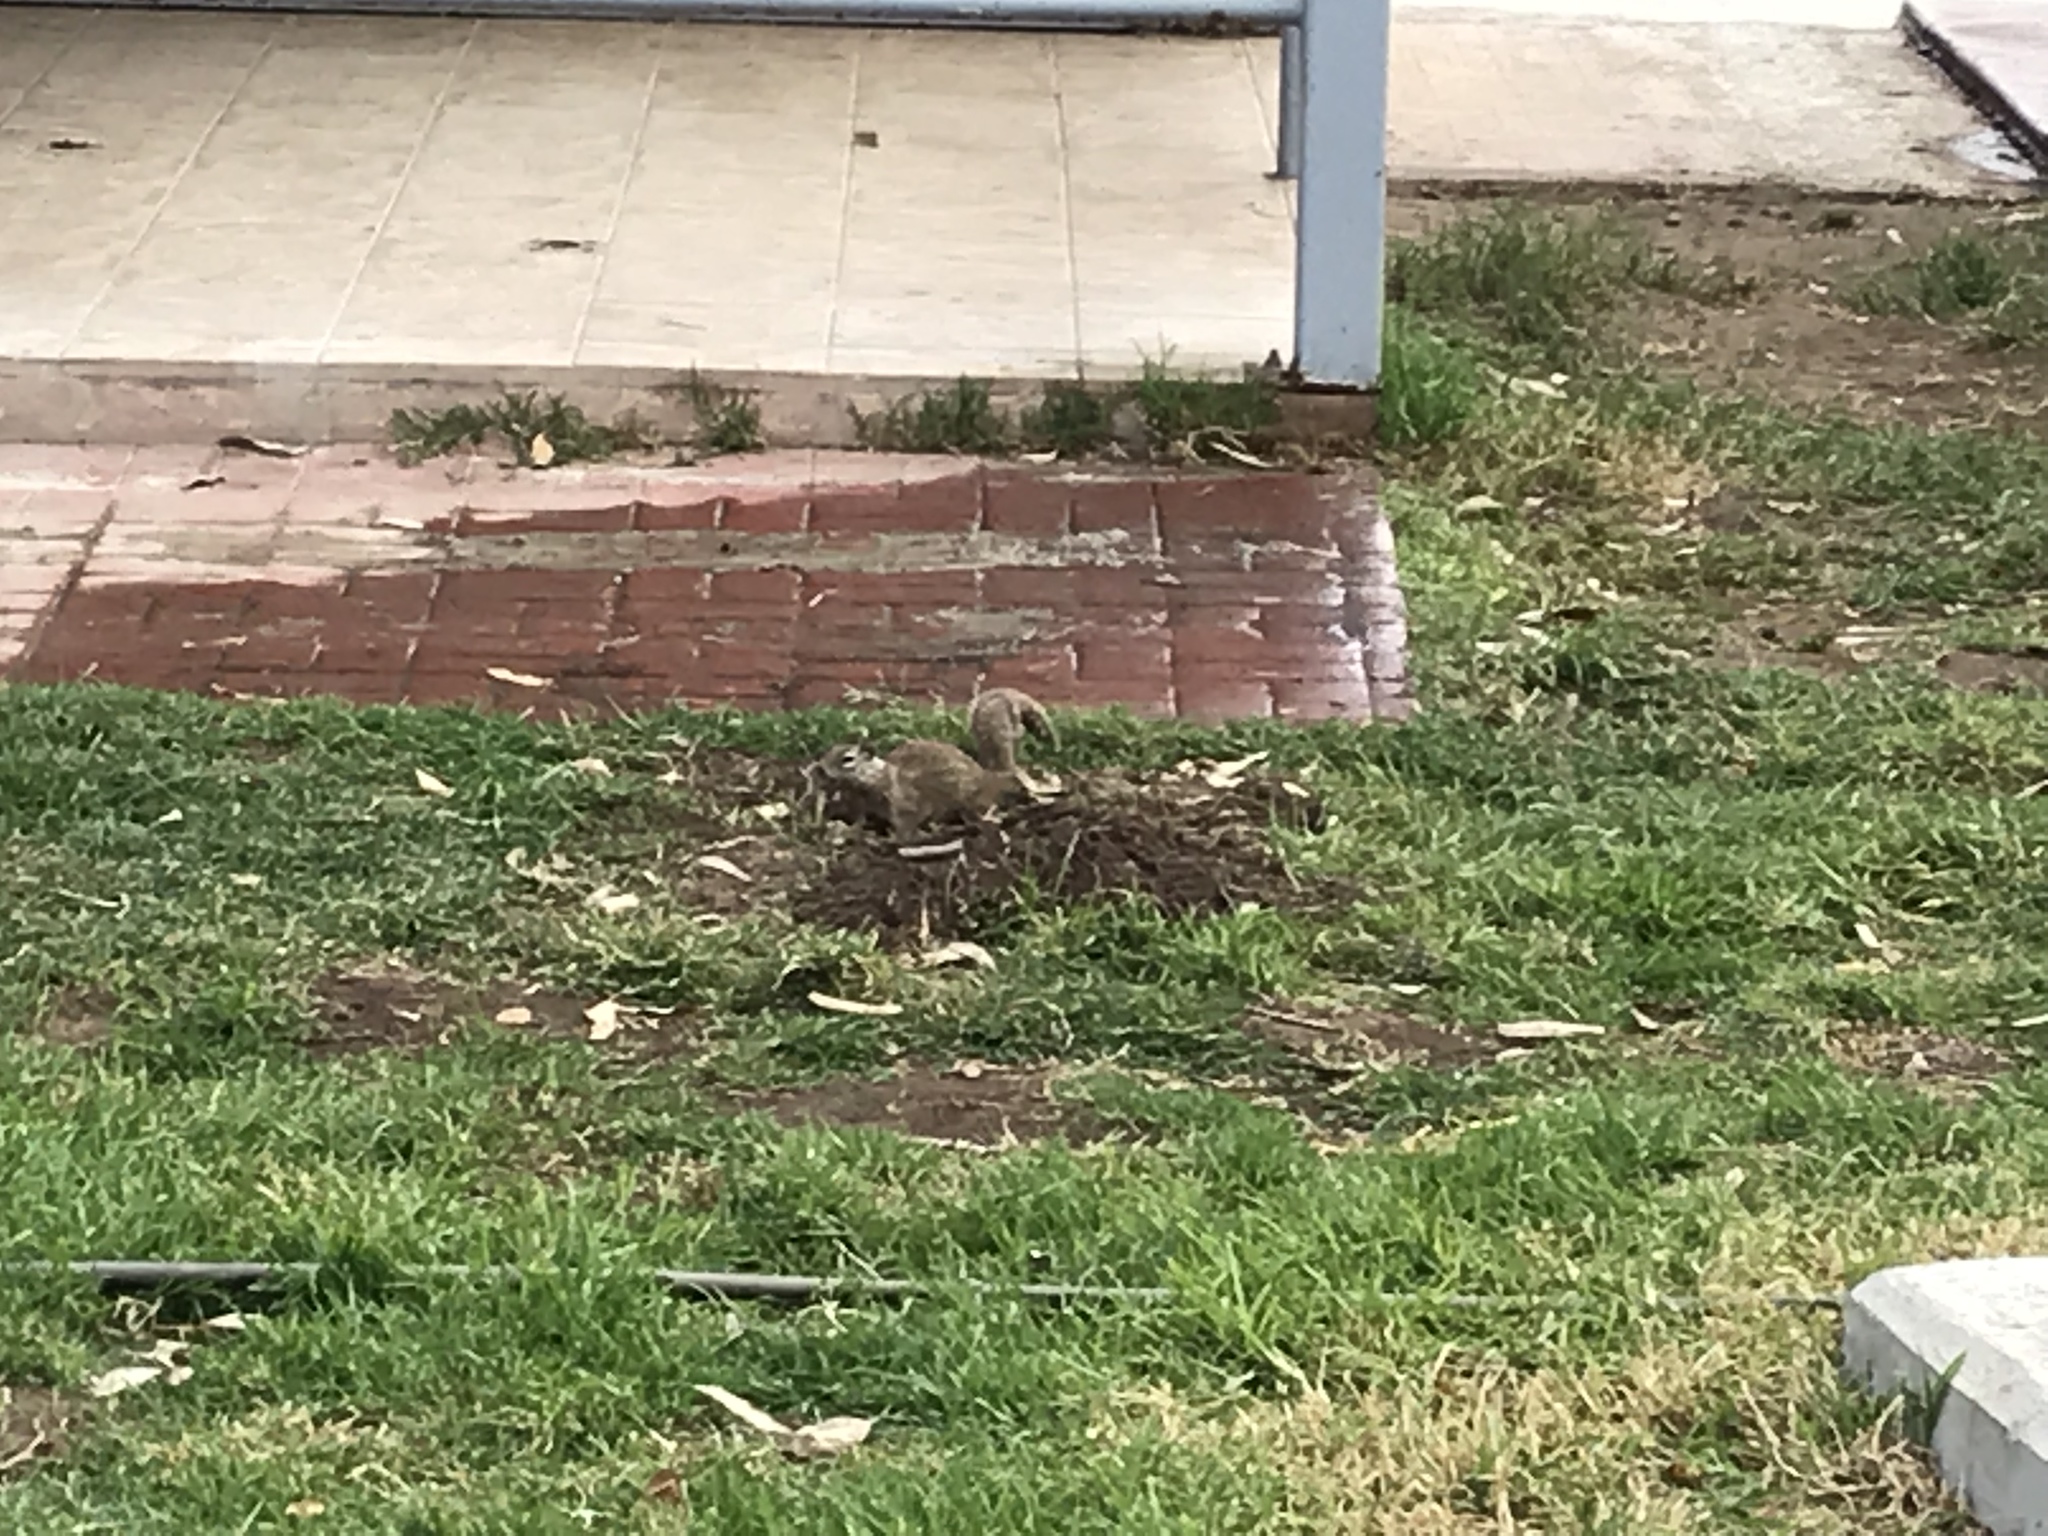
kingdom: Animalia
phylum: Chordata
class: Mammalia
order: Rodentia
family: Sciuridae
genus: Otospermophilus
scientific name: Otospermophilus beecheyi
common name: California ground squirrel
